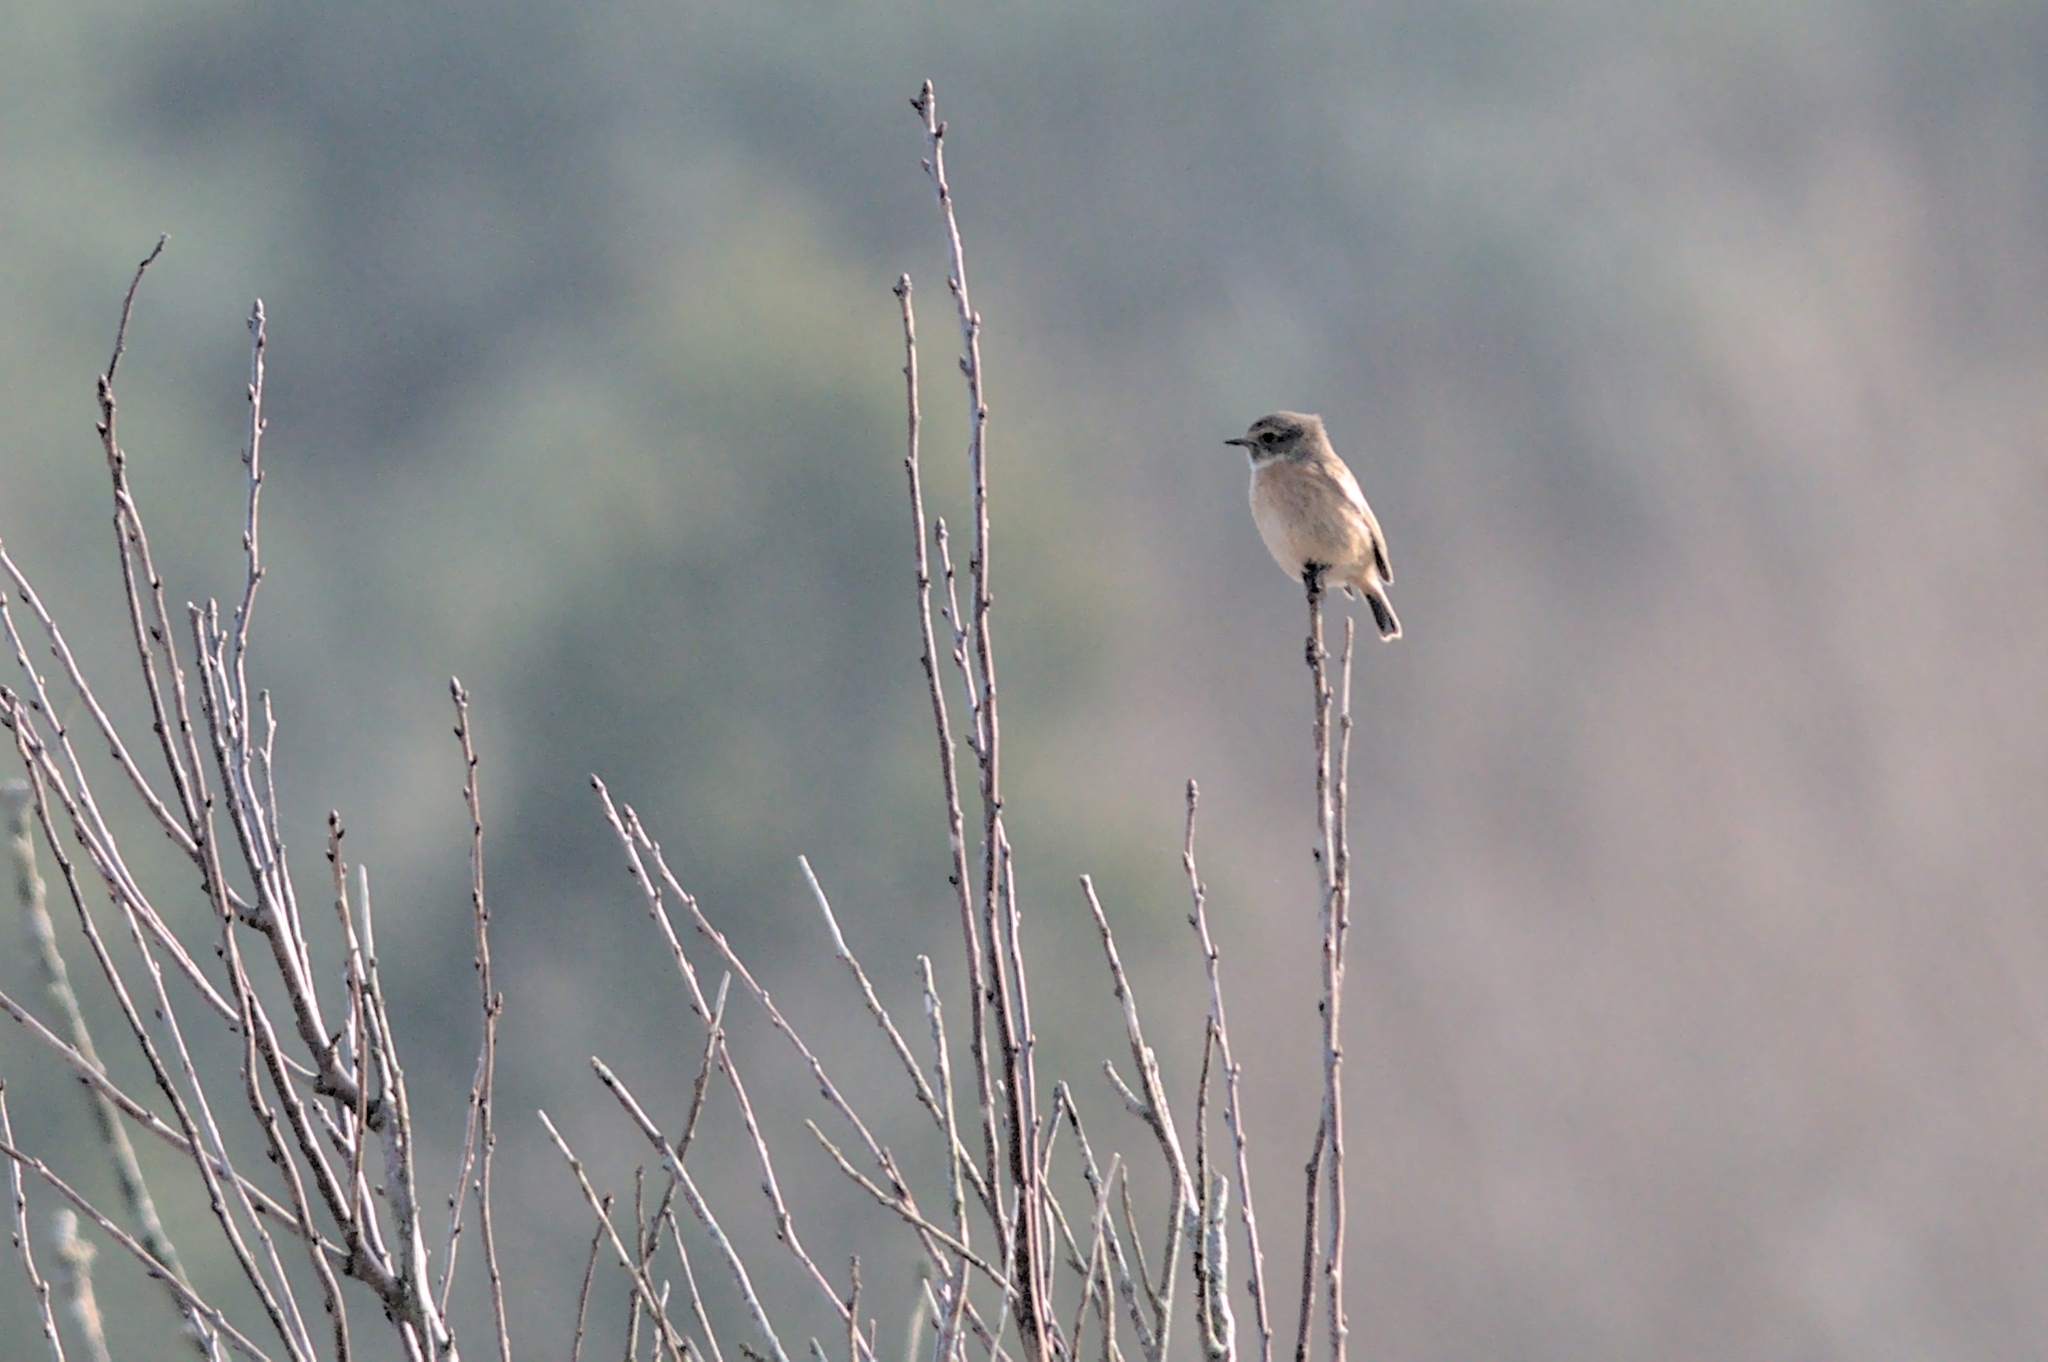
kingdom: Animalia
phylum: Chordata
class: Aves
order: Passeriformes
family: Muscicapidae
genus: Saxicola
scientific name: Saxicola rubicola
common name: European stonechat
